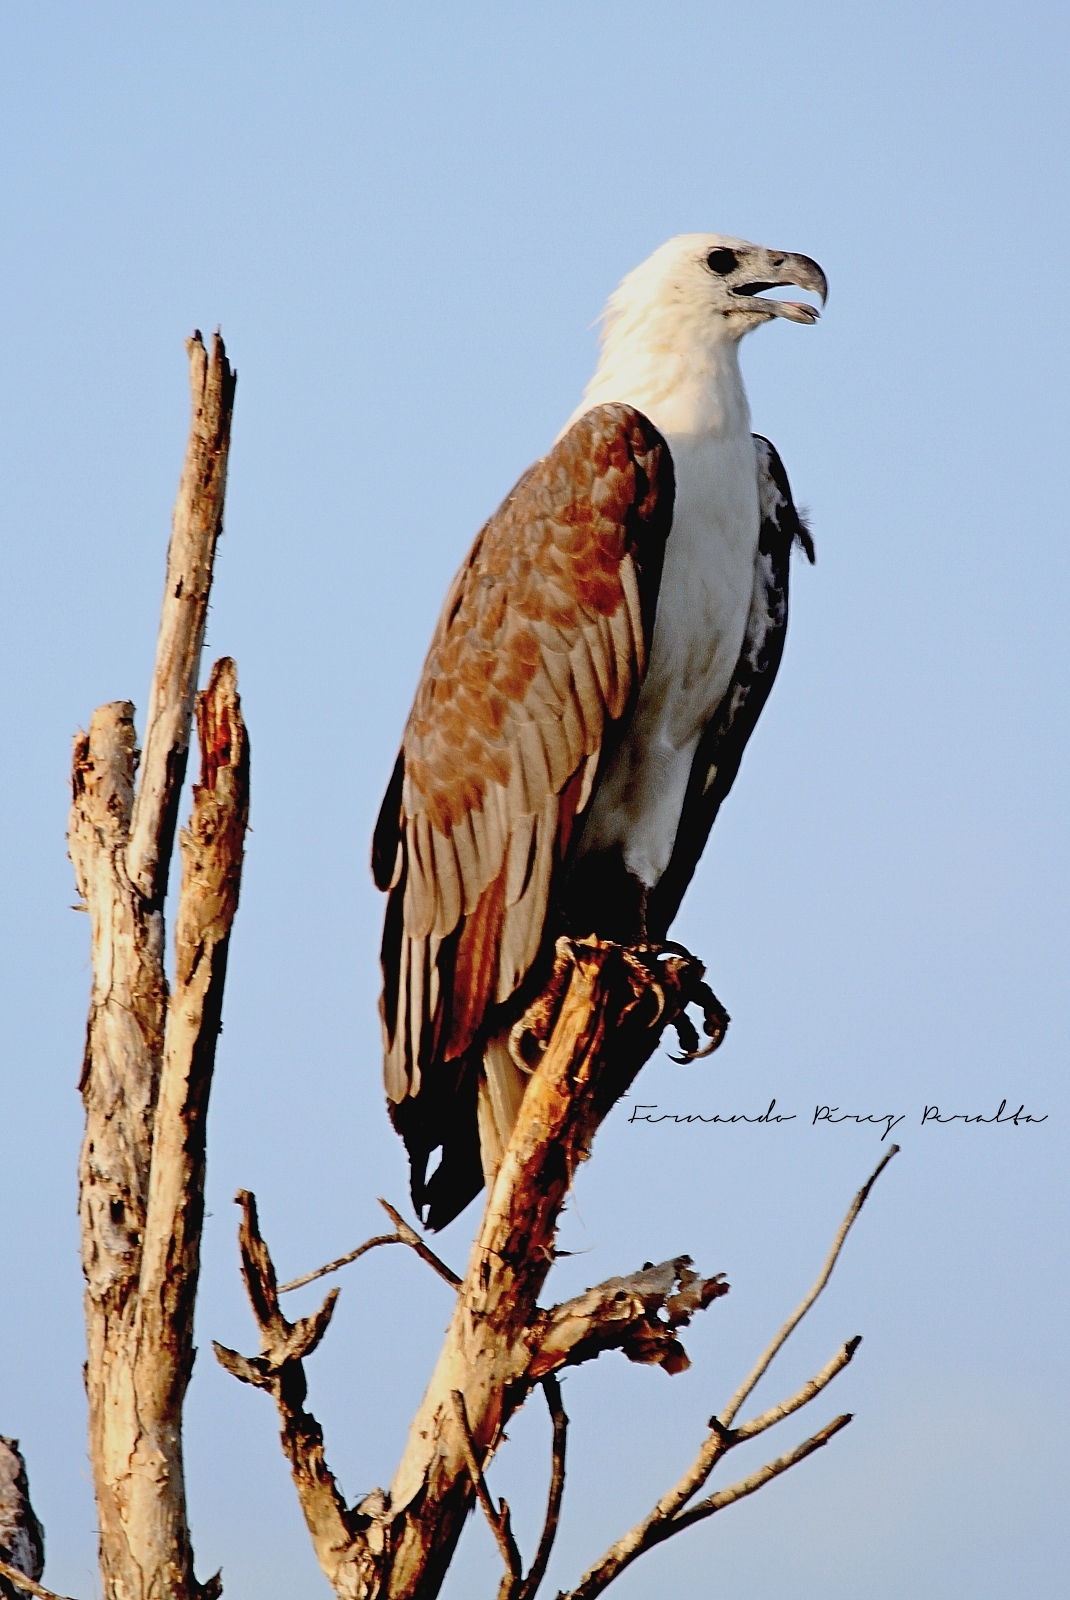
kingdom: Animalia
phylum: Chordata
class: Aves
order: Accipitriformes
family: Accipitridae
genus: Haliaeetus
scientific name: Haliaeetus leucogaster
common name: White-bellied sea eagle
